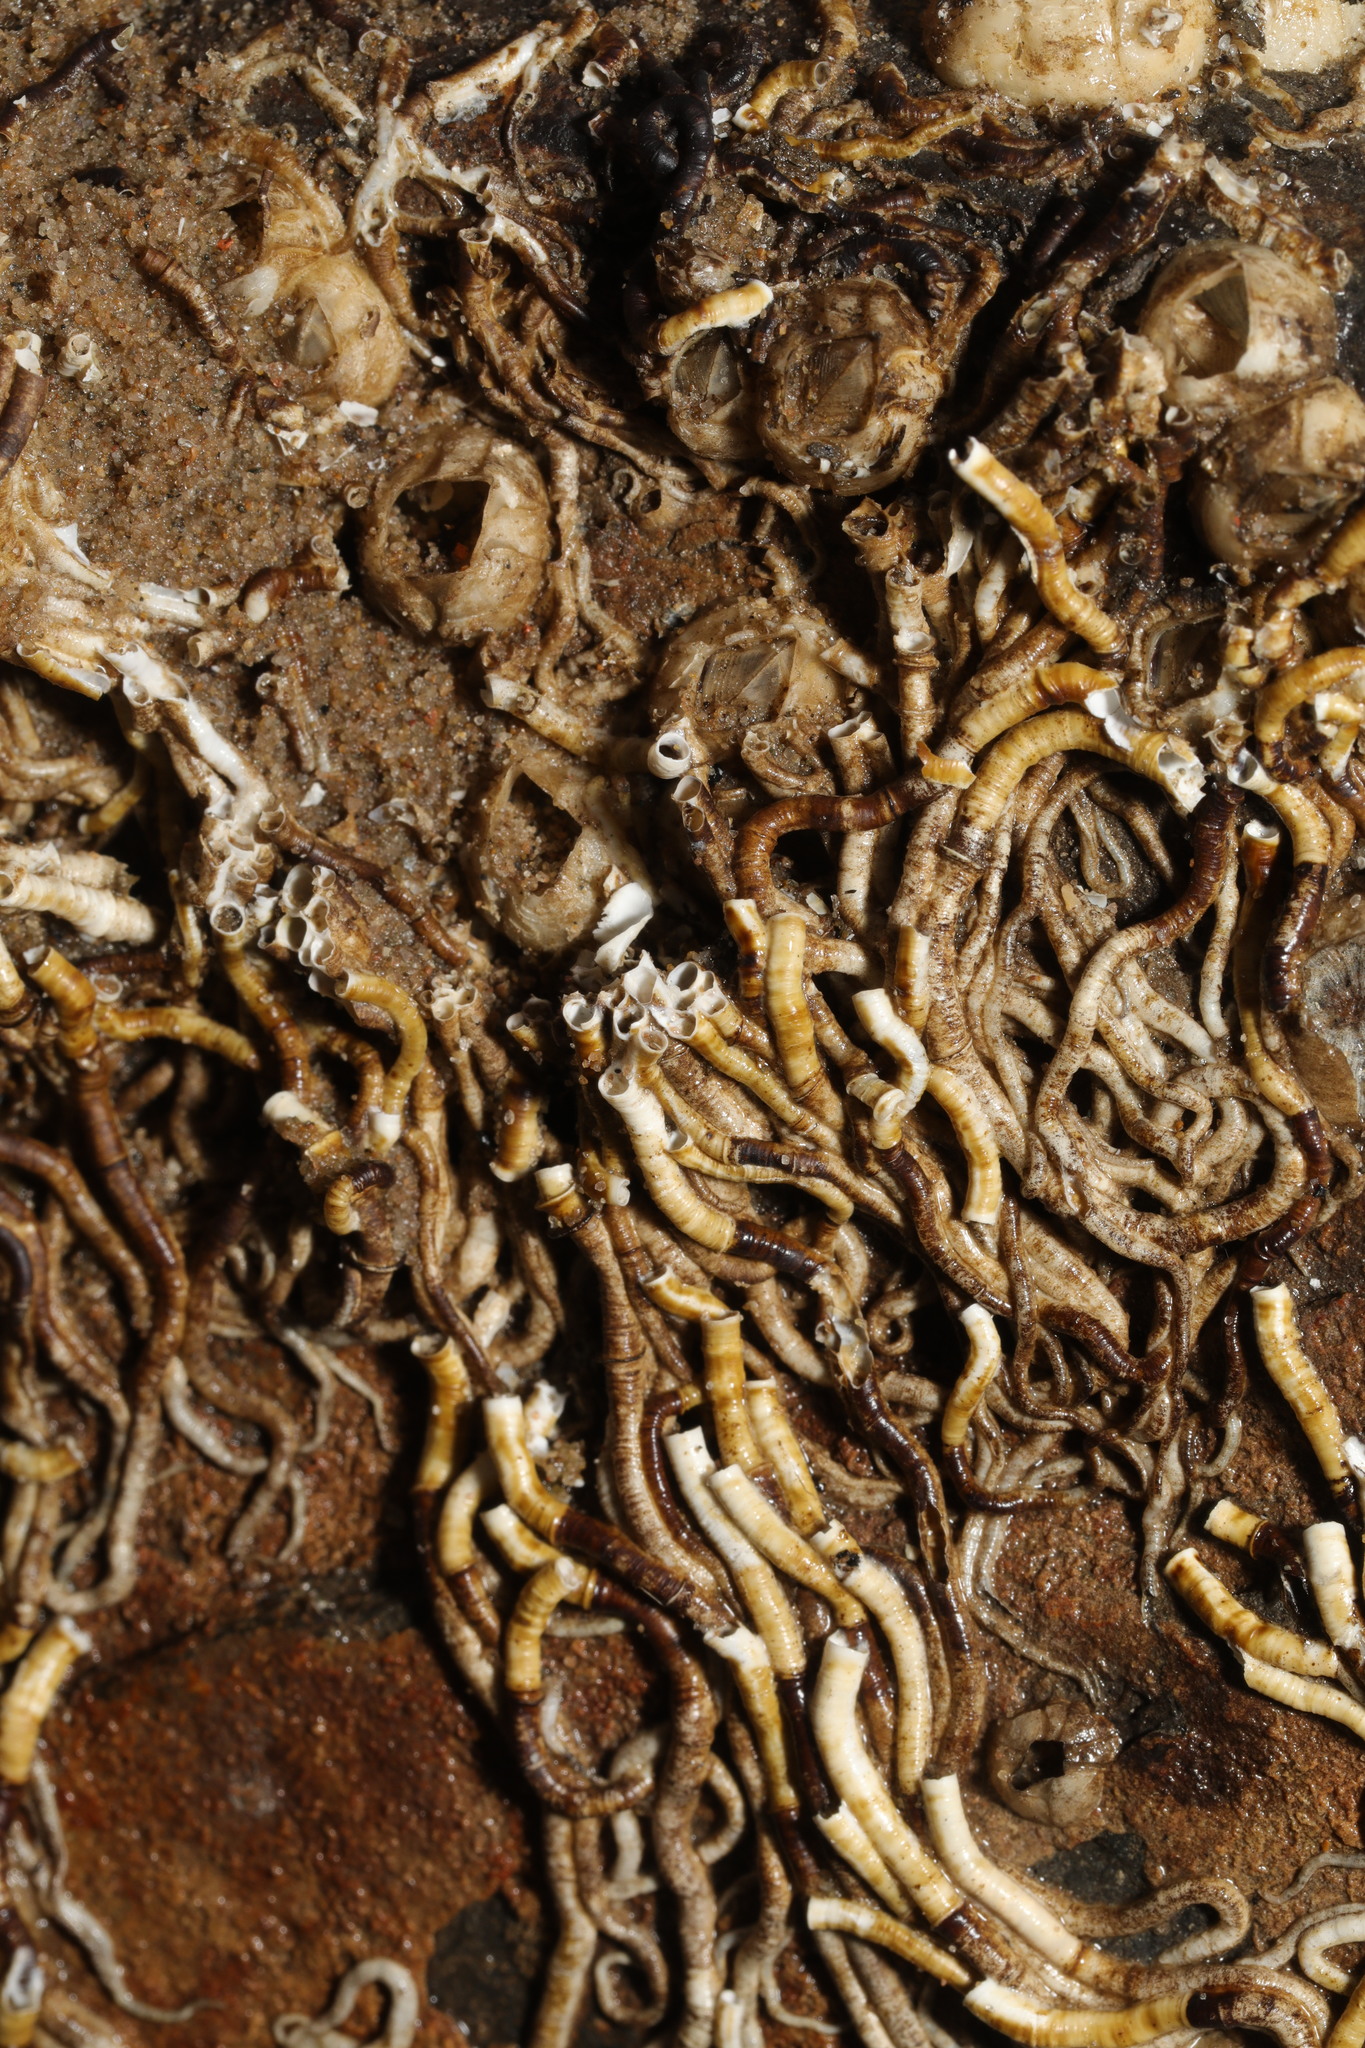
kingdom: Animalia
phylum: Annelida
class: Polychaeta
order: Sabellida
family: Serpulidae
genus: Ficopomatus
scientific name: Ficopomatus enigmaticus
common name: Australian tubeworm
